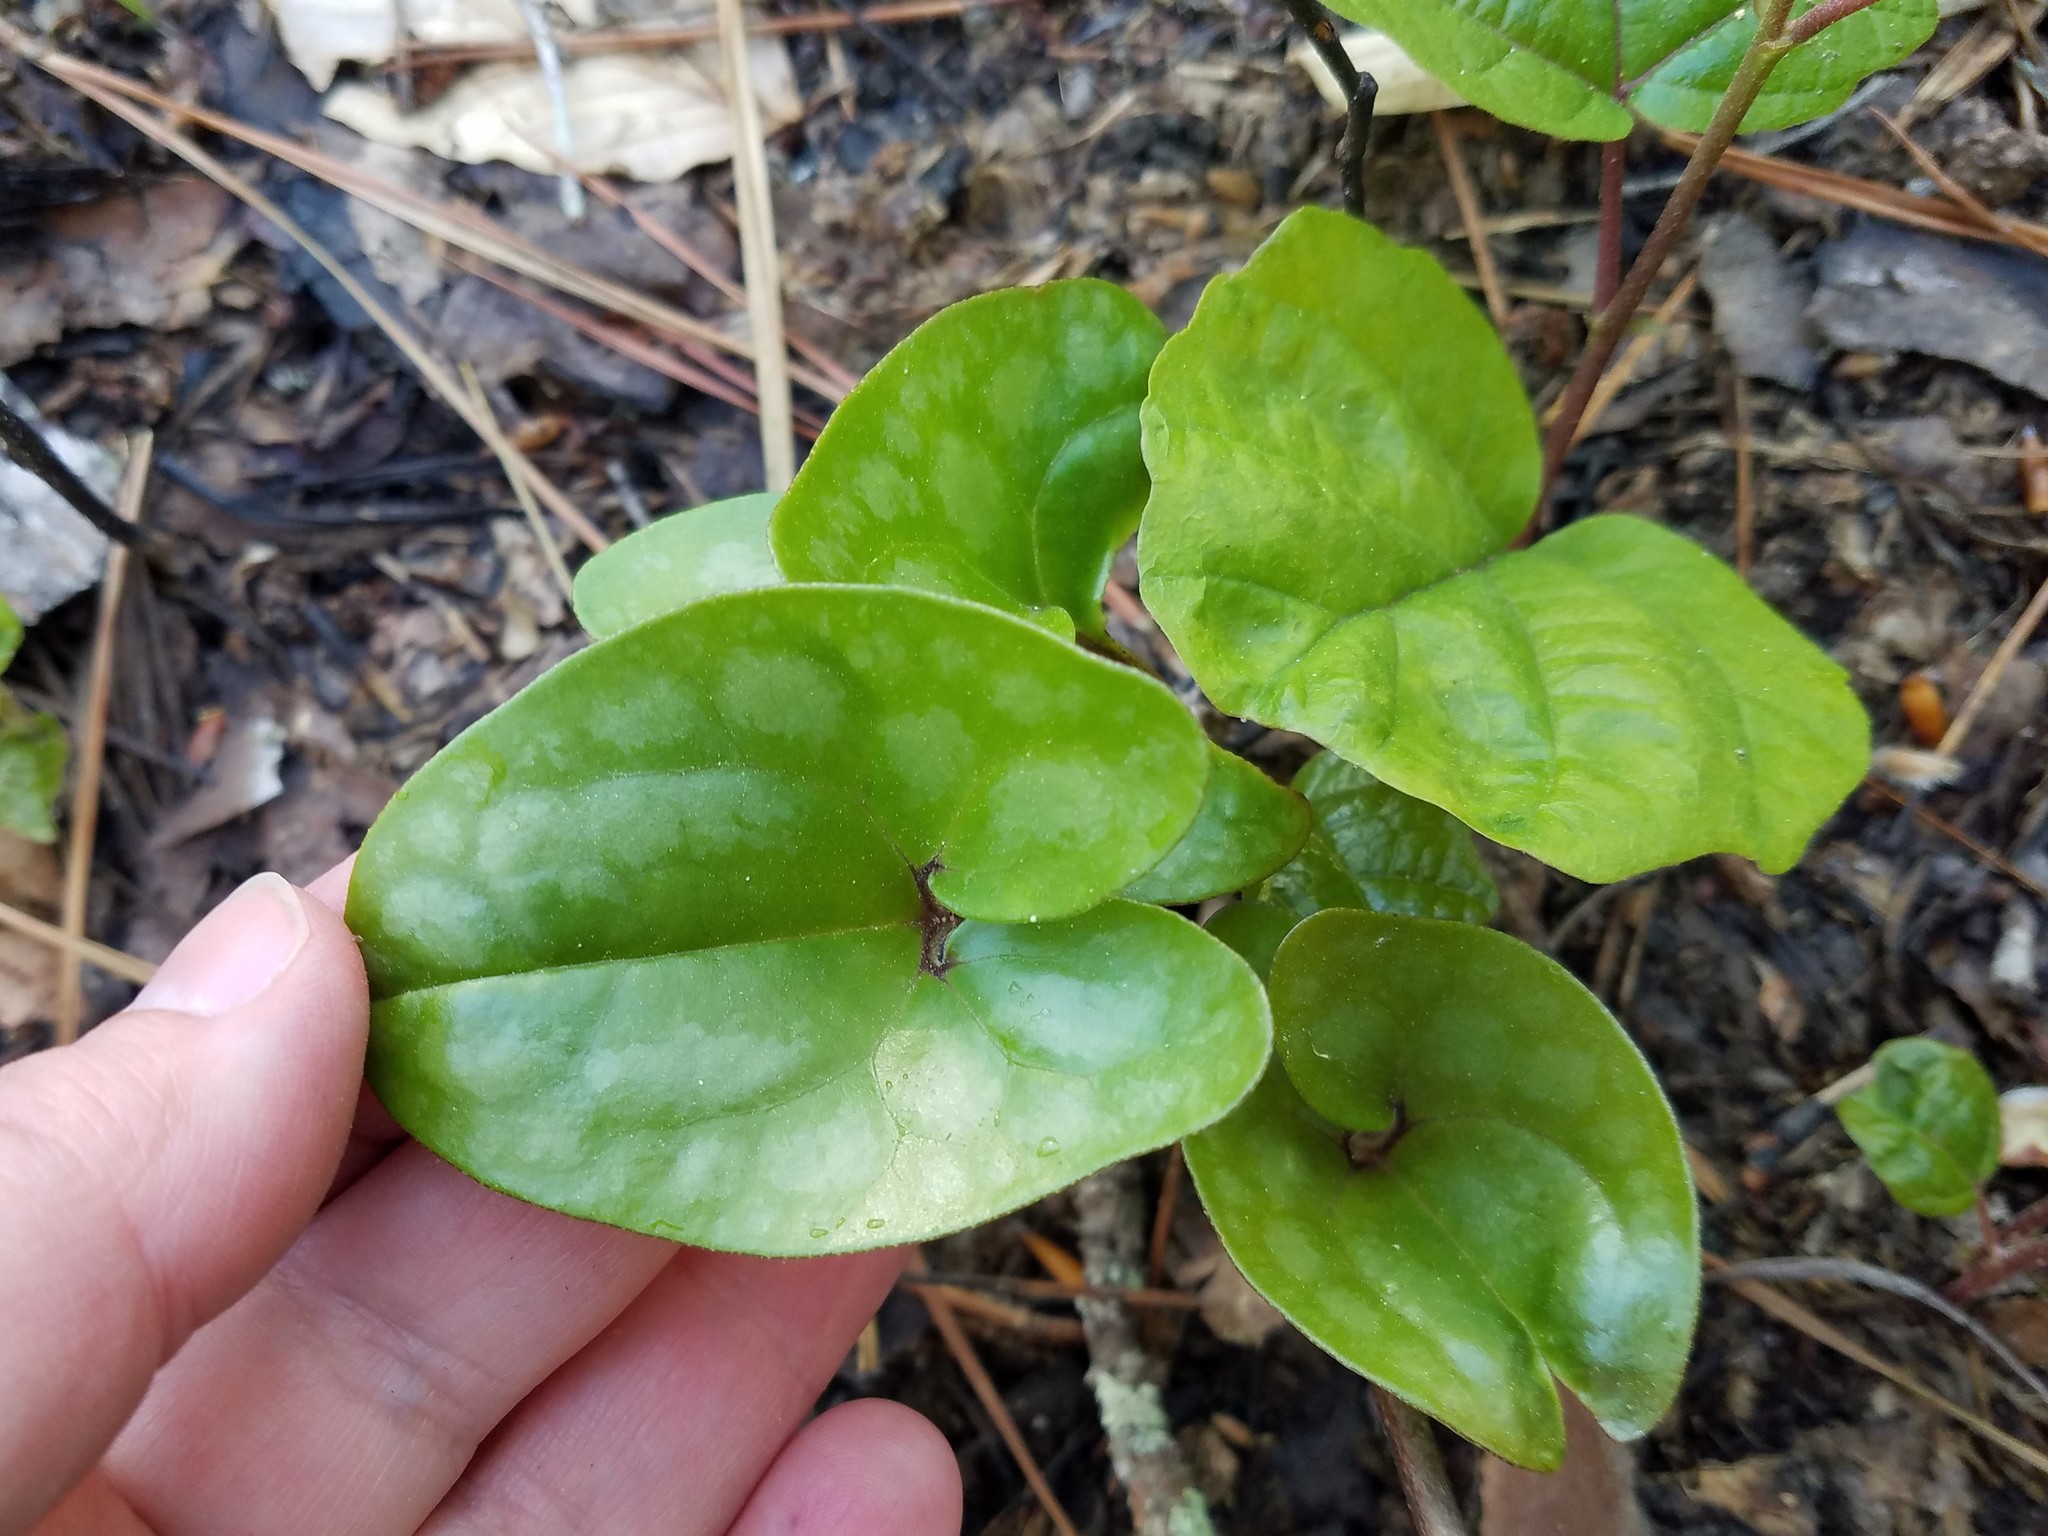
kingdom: Plantae
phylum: Tracheophyta
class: Magnoliopsida
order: Piperales
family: Aristolochiaceae
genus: Hexastylis
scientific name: Hexastylis arifolia
